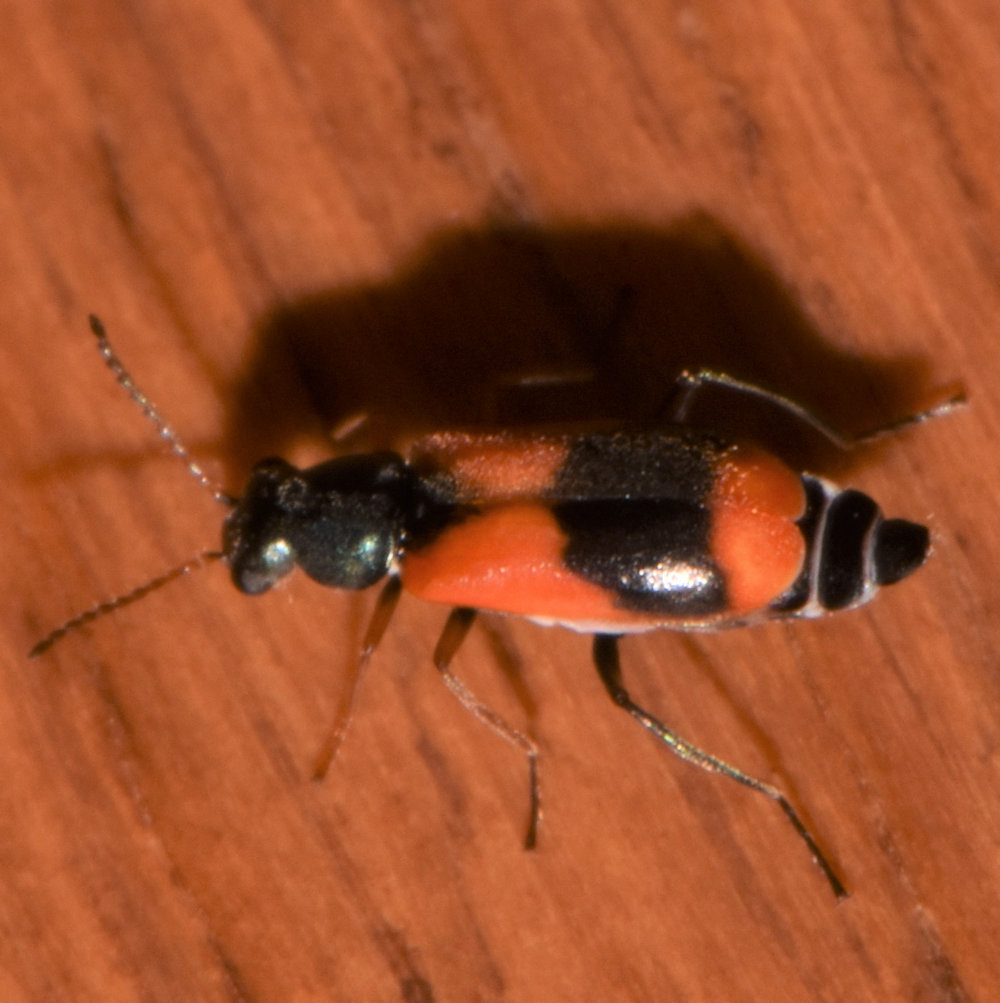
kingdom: Animalia
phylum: Arthropoda
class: Insecta
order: Coleoptera
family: Melyridae
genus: Anthocomus
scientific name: Anthocomus equestris
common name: Black-banded soft-winged flower beetle
